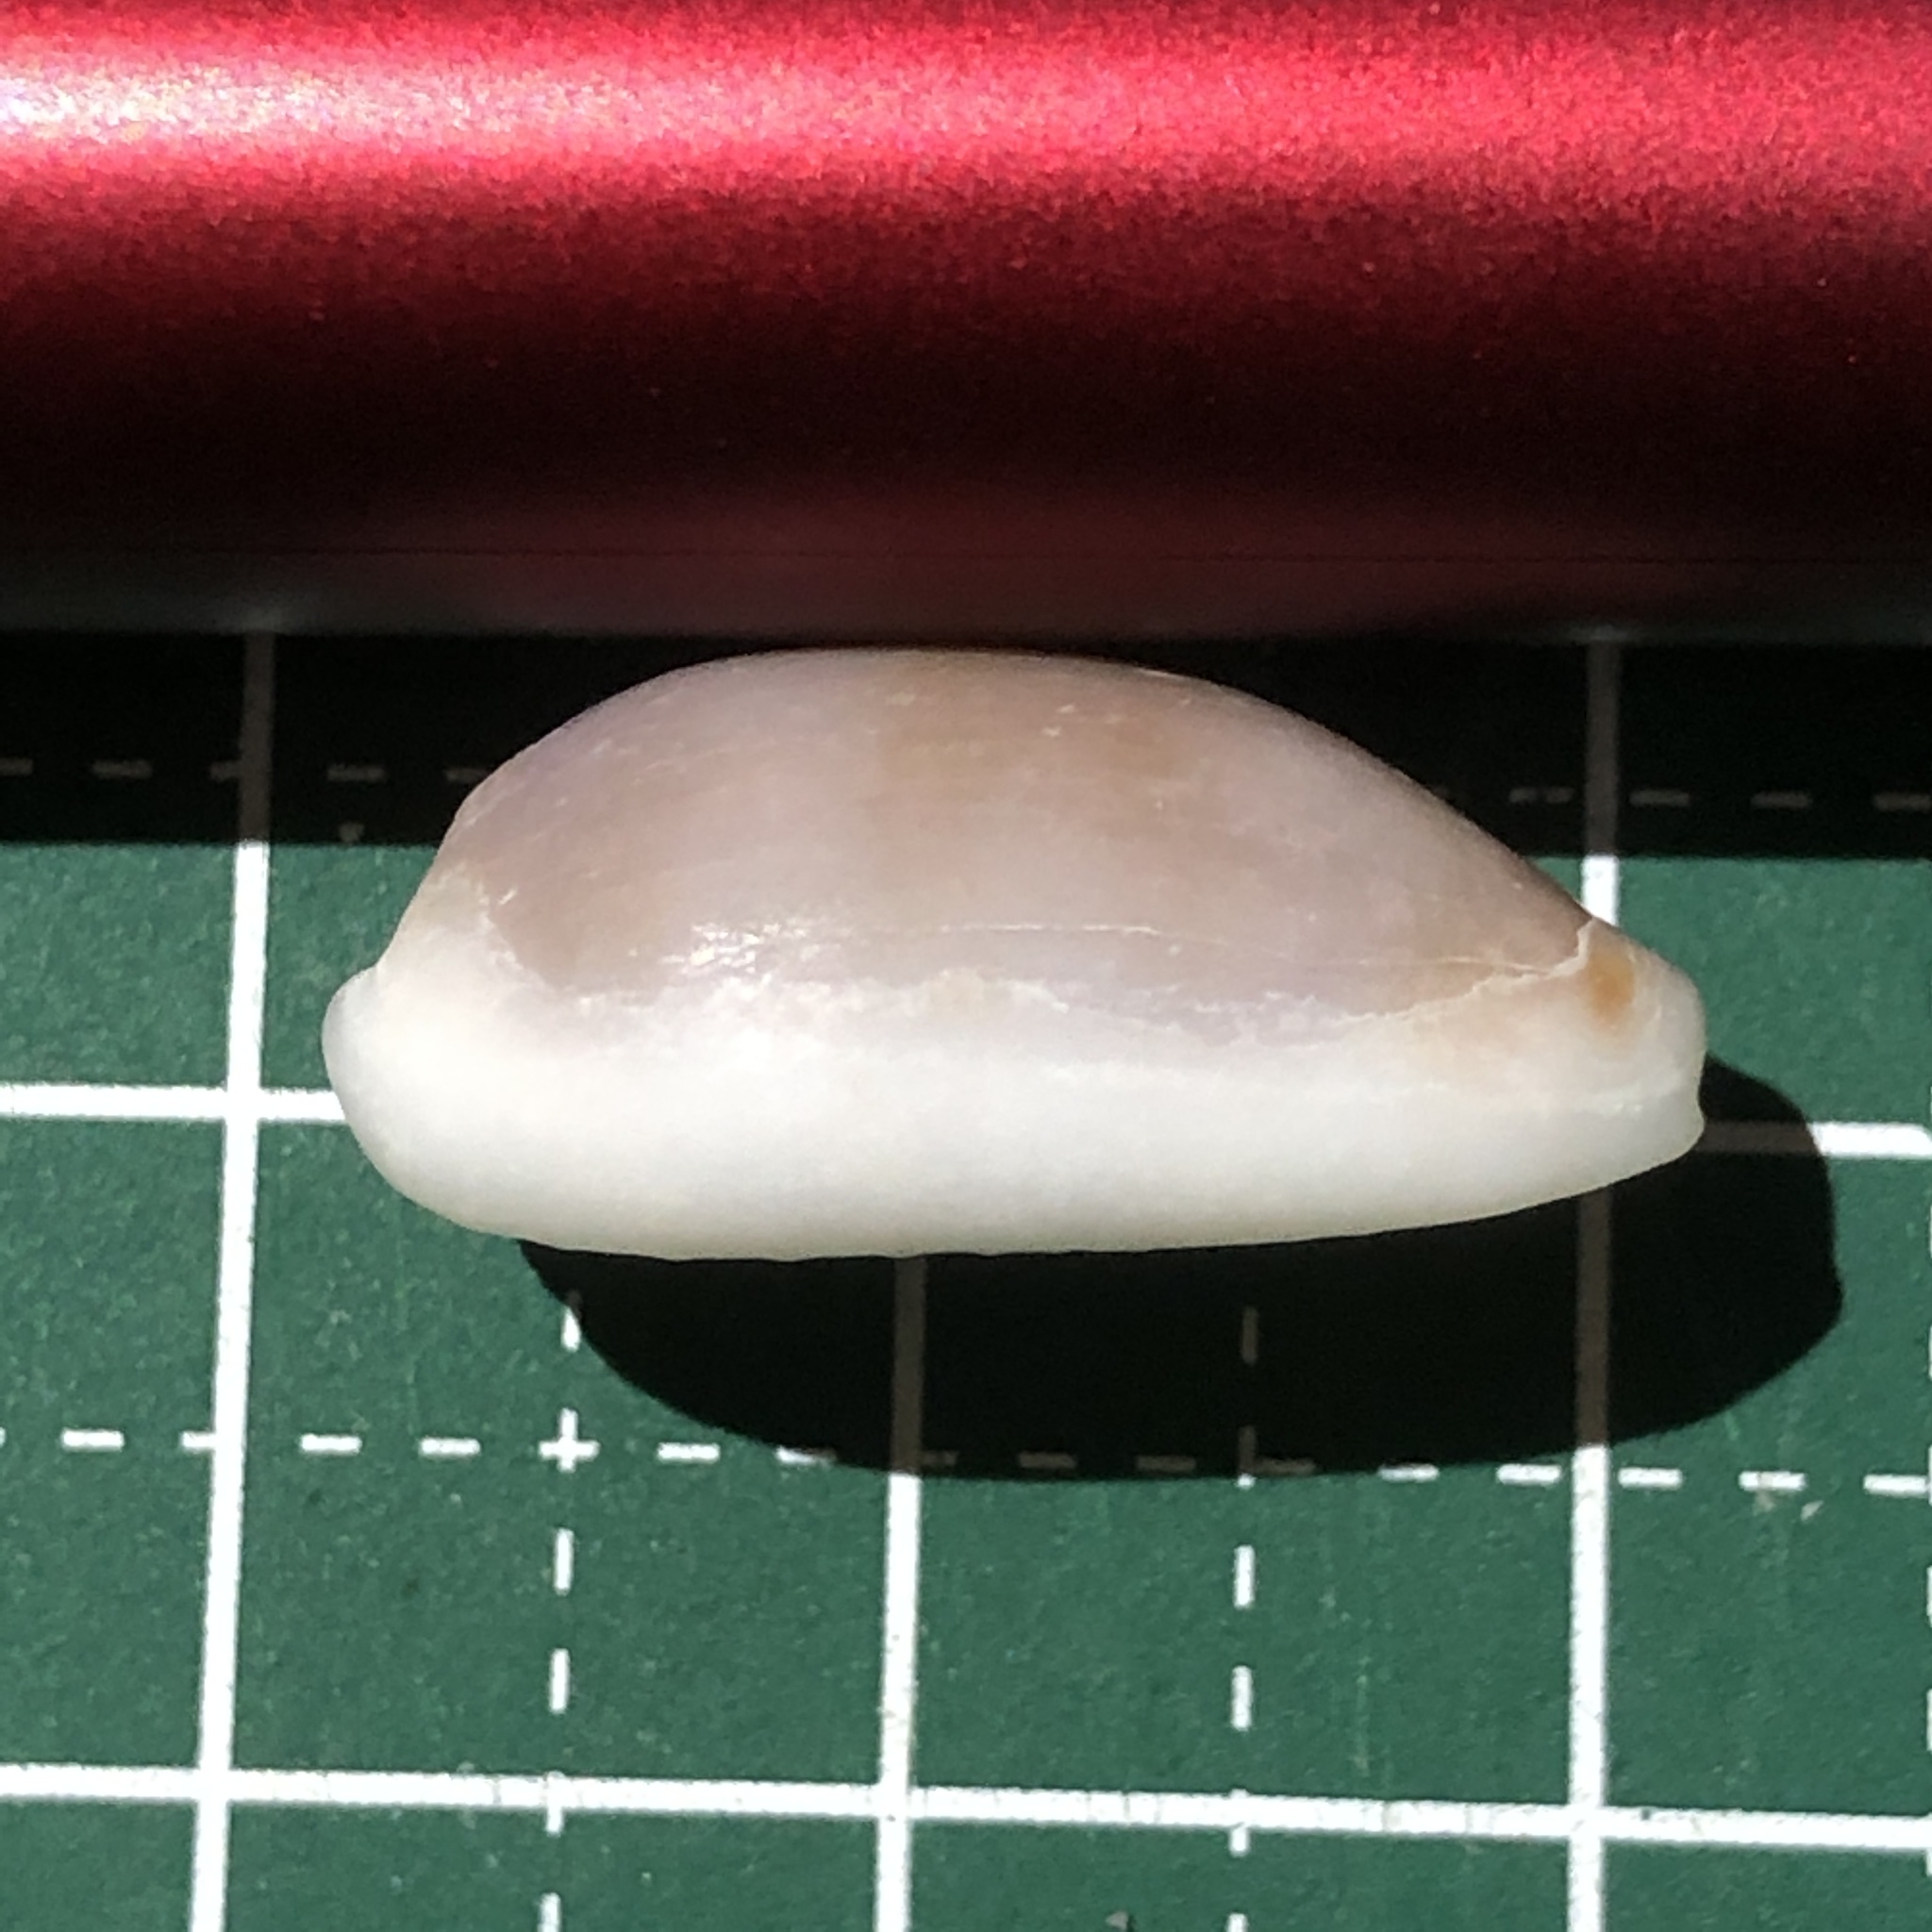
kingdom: Animalia
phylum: Mollusca
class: Gastropoda
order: Littorinimorpha
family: Cypraeidae
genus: Erronea
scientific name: Erronea errones
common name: Mistaken cowrie
